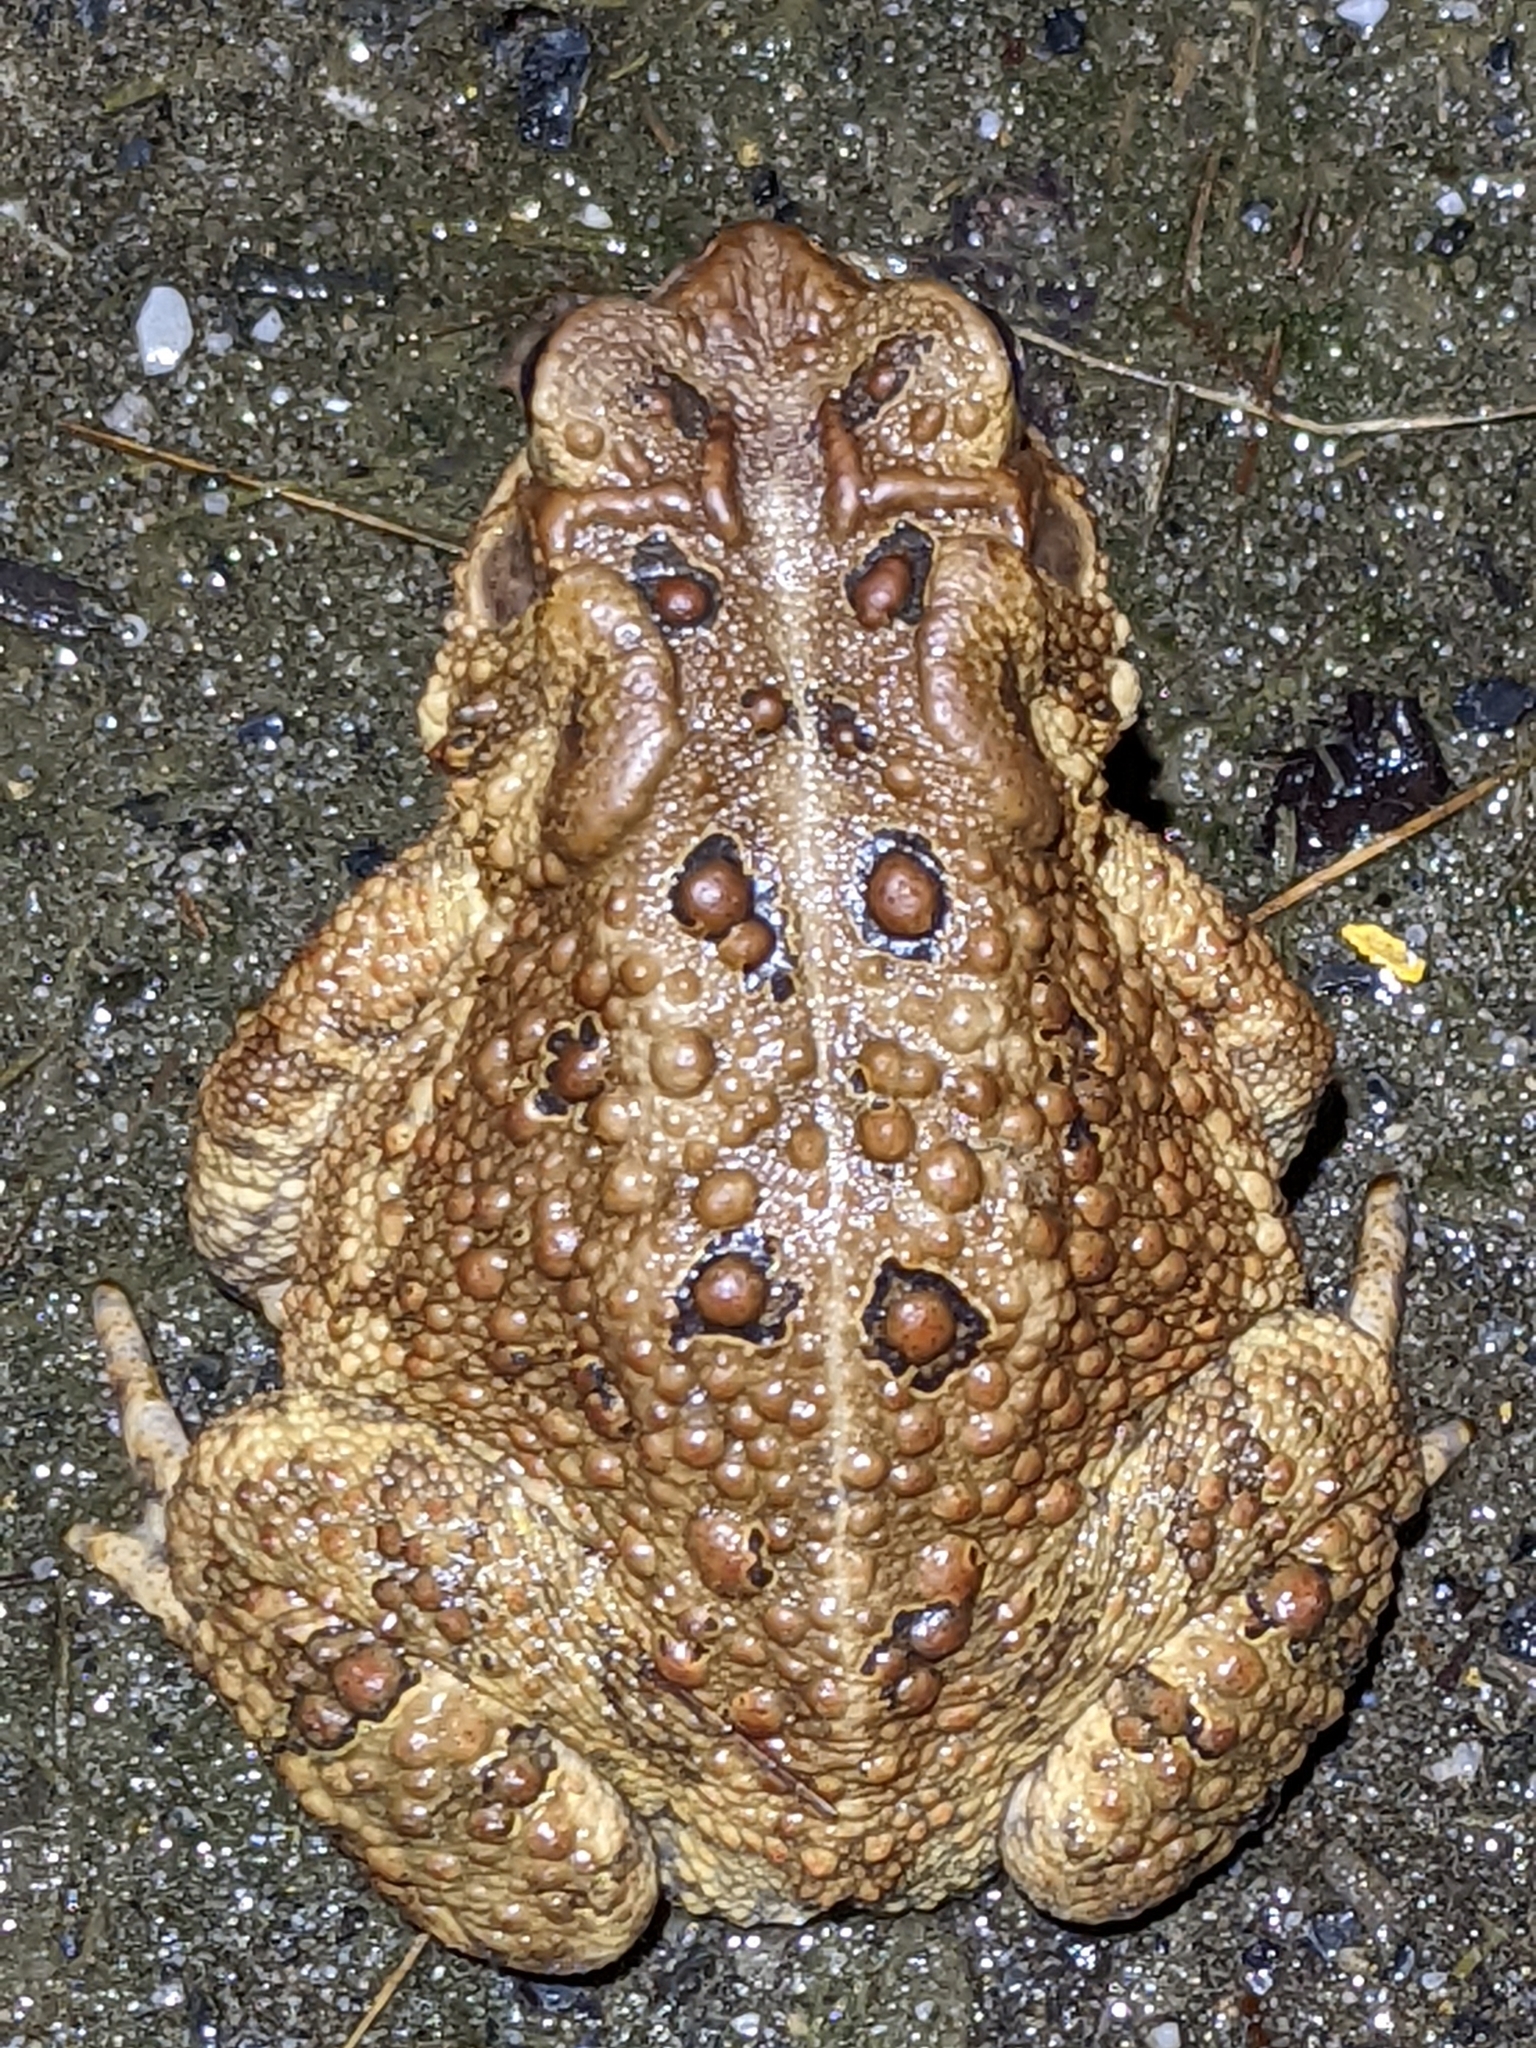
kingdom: Animalia
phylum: Chordata
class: Amphibia
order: Anura
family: Bufonidae
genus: Anaxyrus
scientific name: Anaxyrus americanus
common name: American toad
